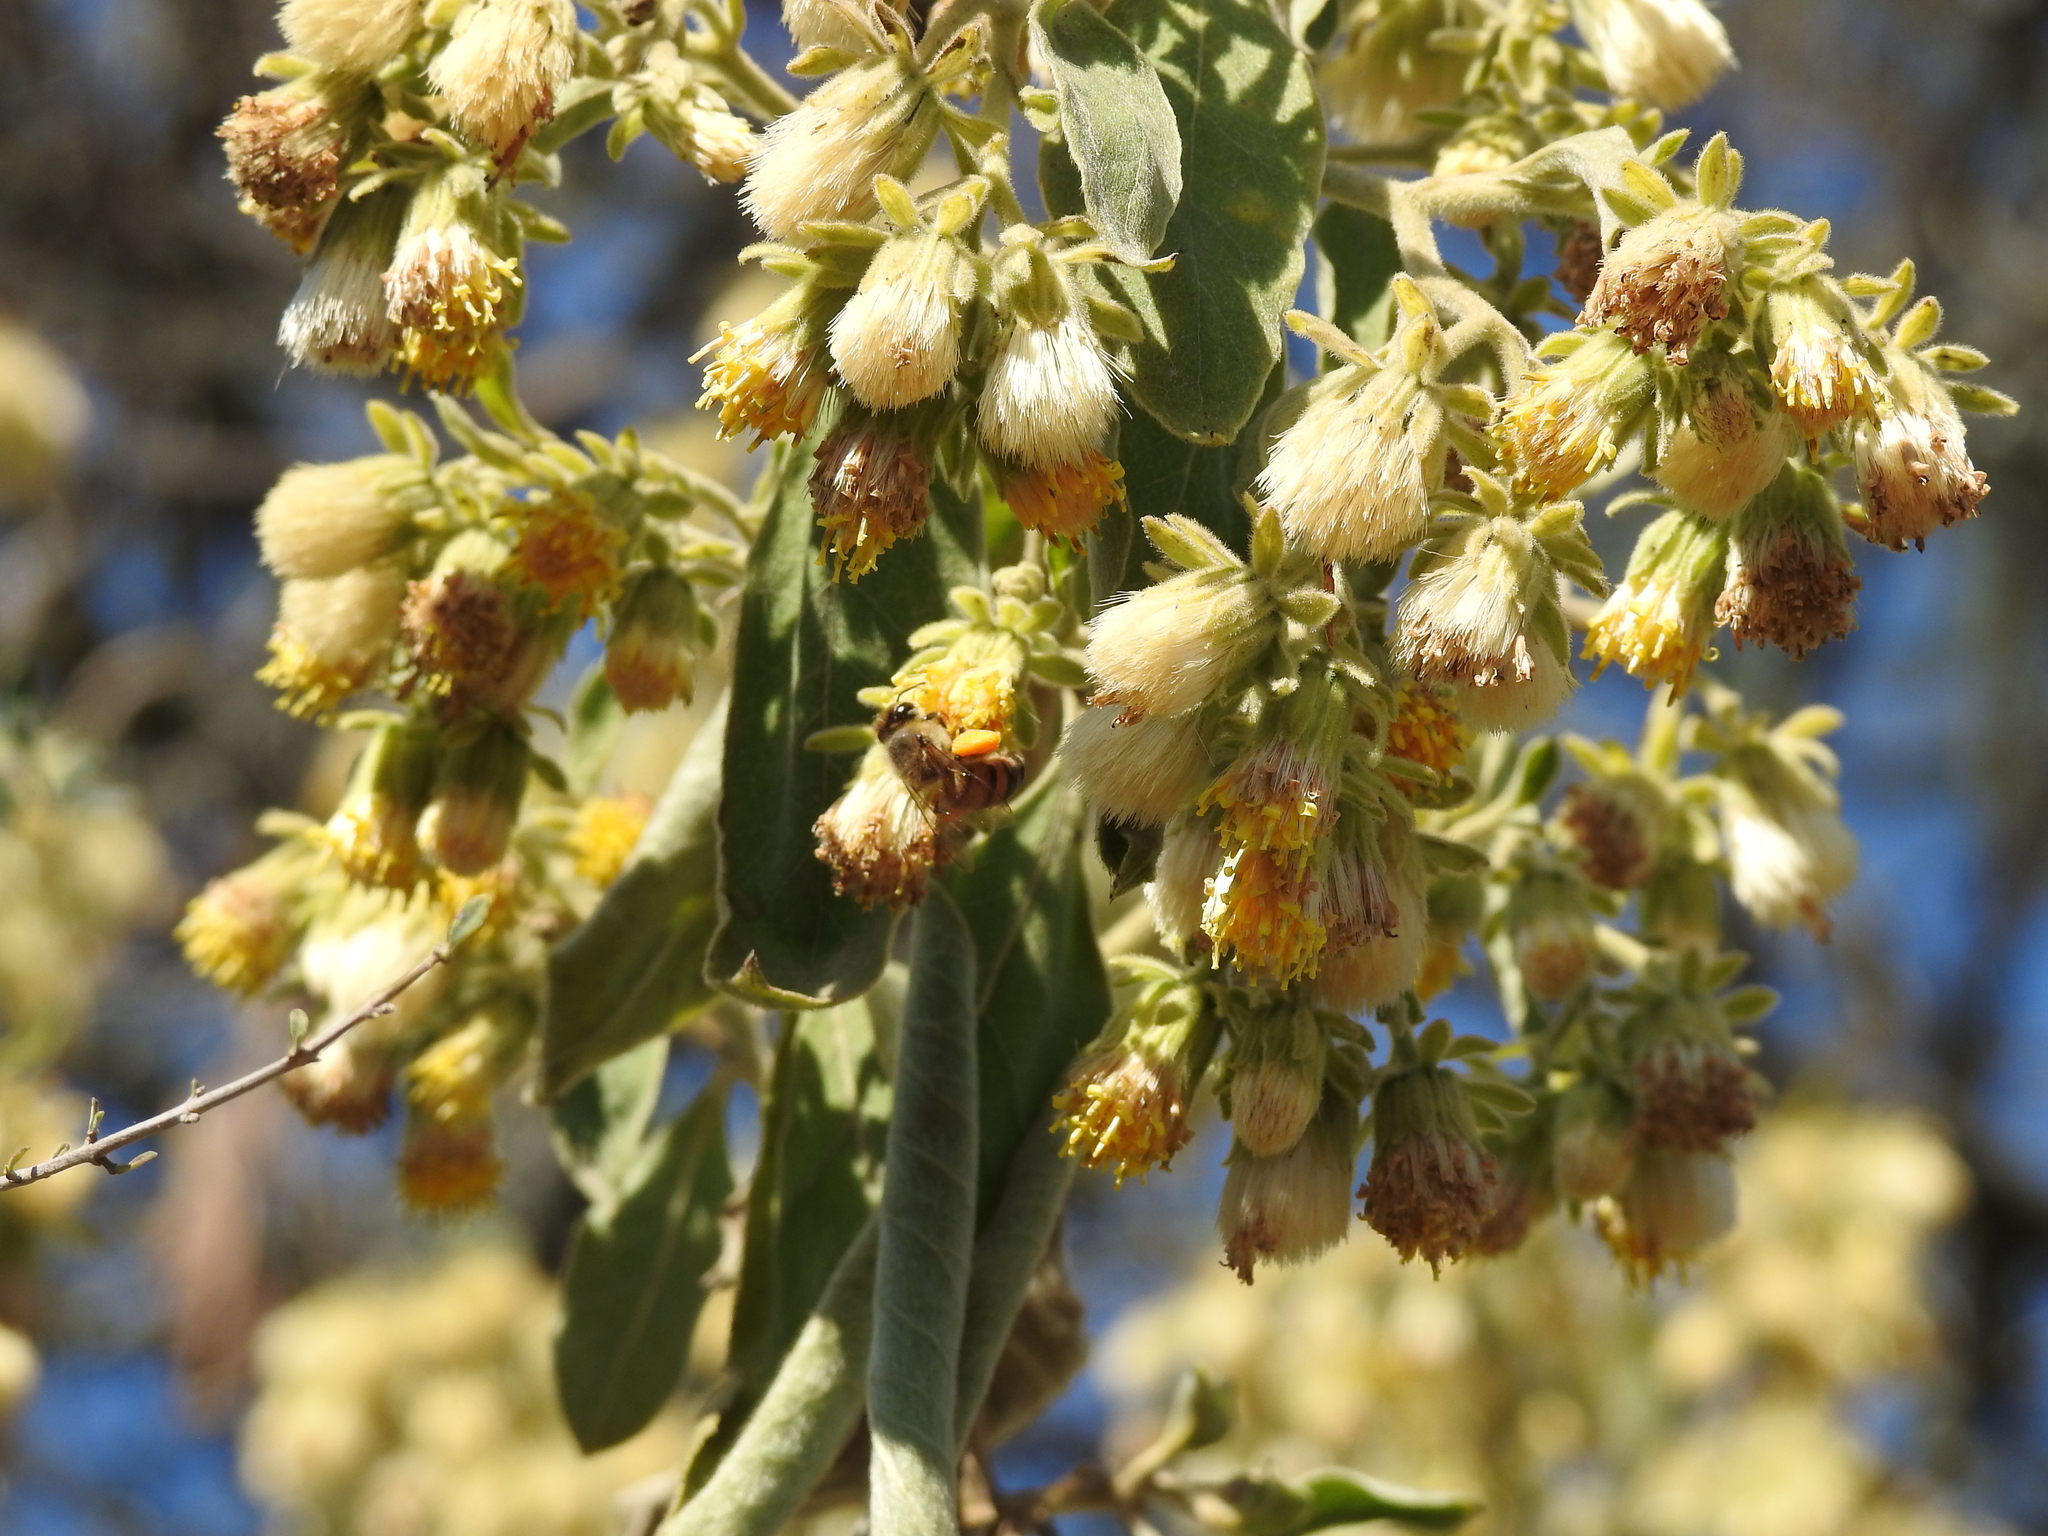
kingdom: Animalia
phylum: Arthropoda
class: Insecta
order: Hymenoptera
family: Apidae
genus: Apis
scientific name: Apis mellifera
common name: Honey bee
